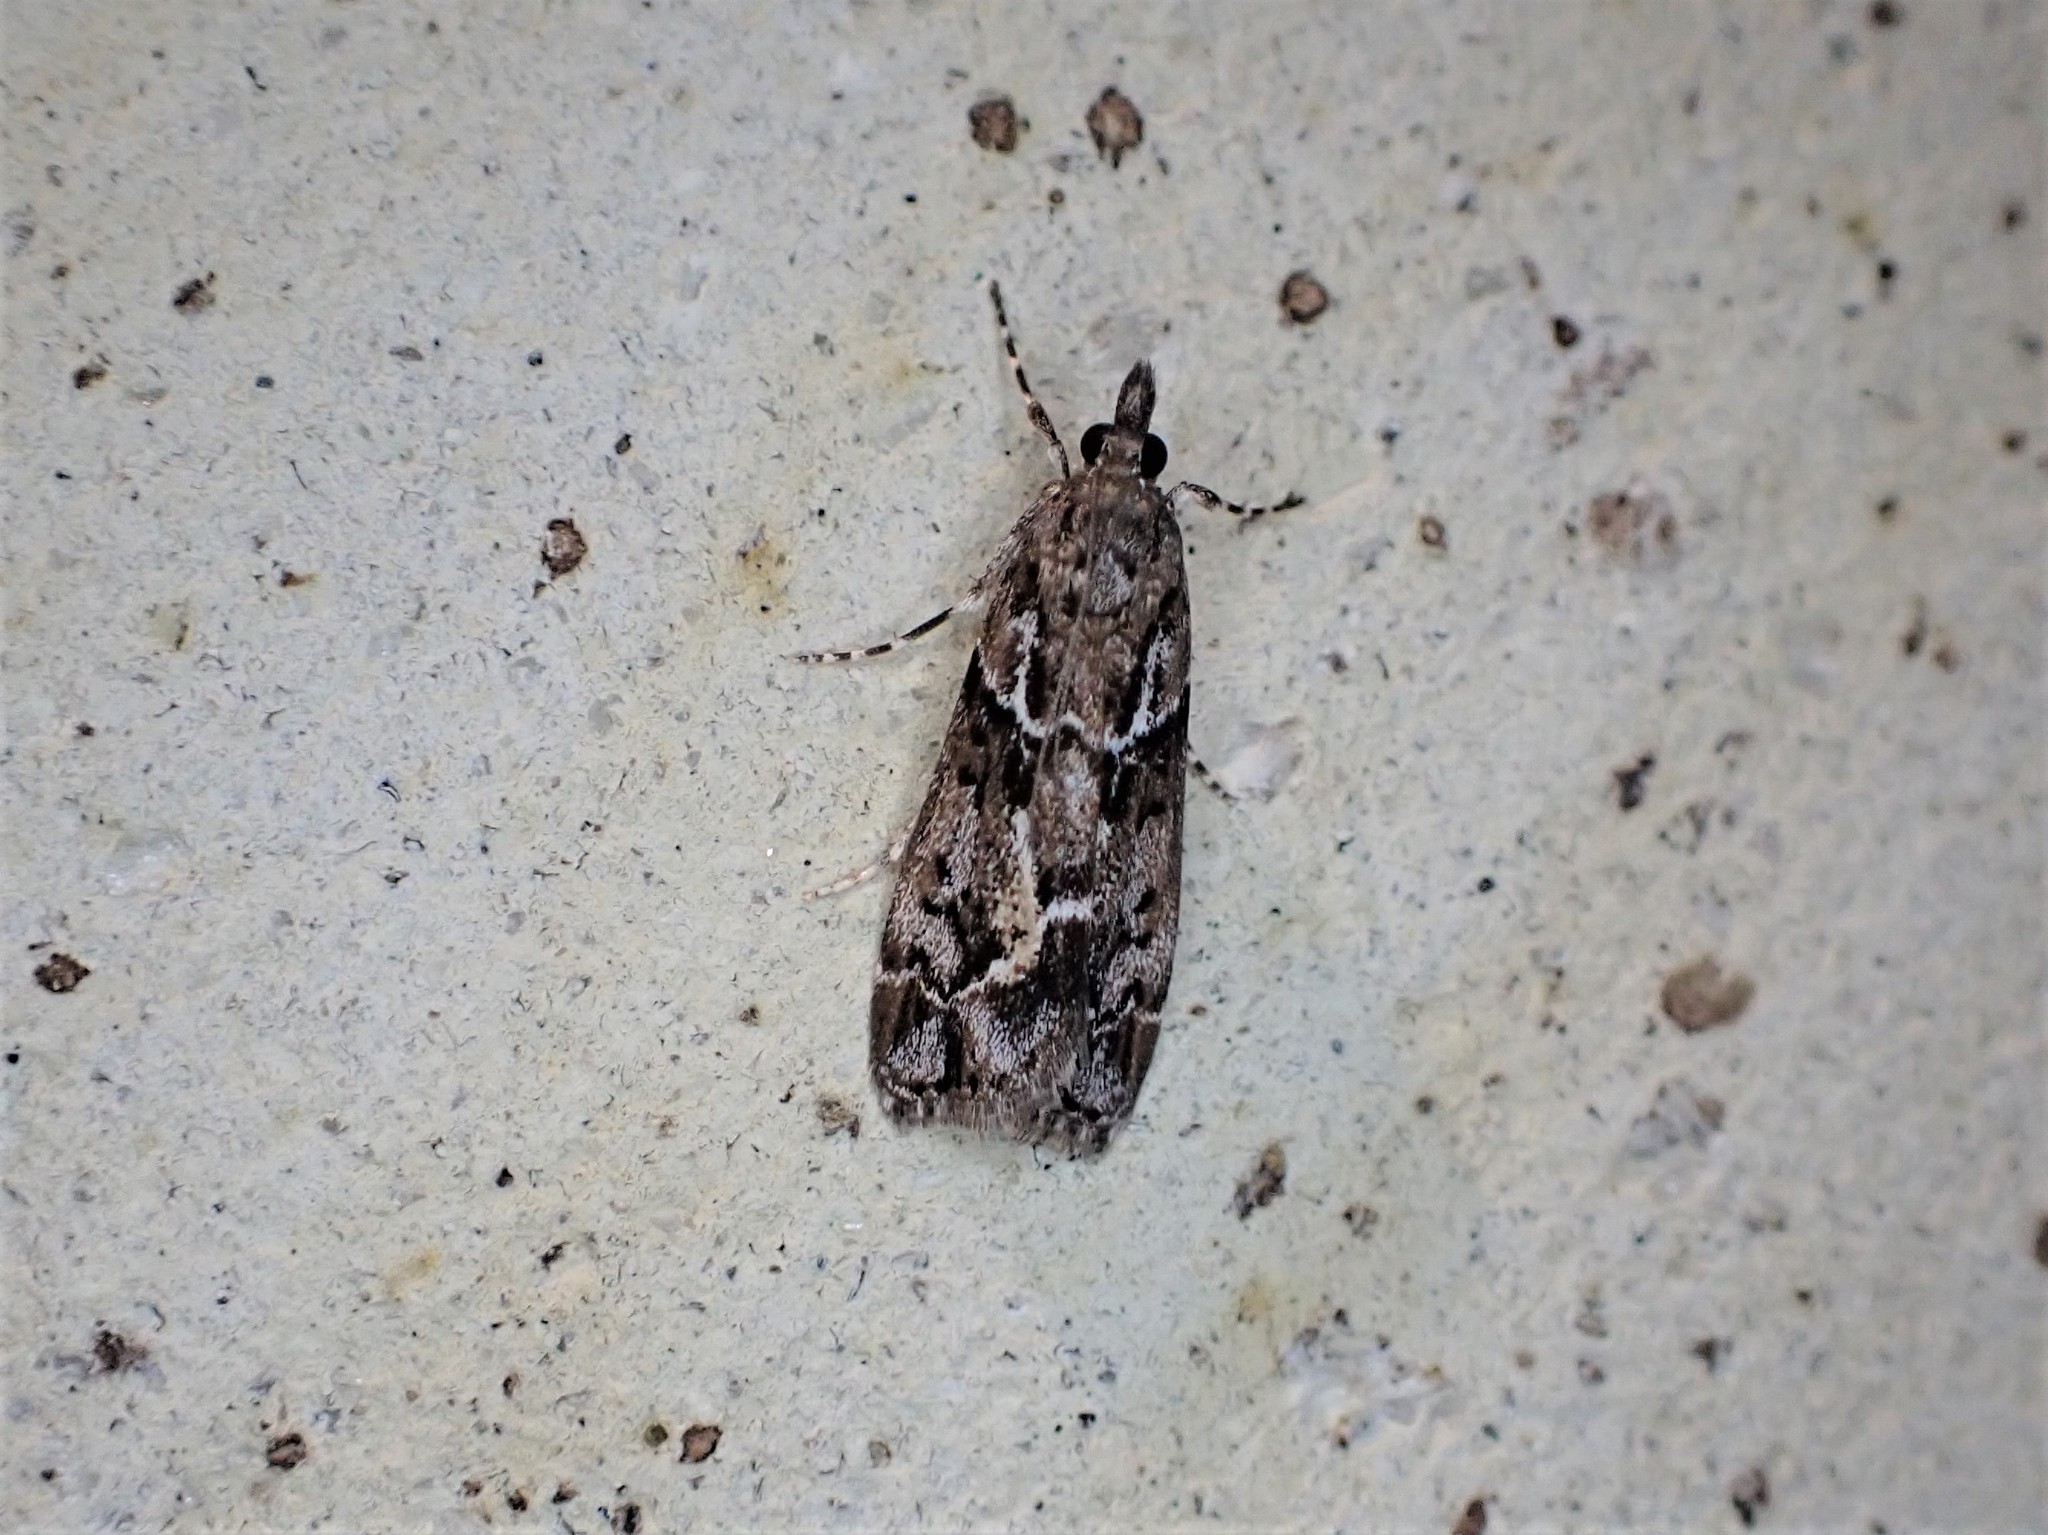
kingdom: Animalia
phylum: Arthropoda
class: Insecta
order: Lepidoptera
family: Crambidae
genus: Eudonia
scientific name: Eudonia submarginalis
